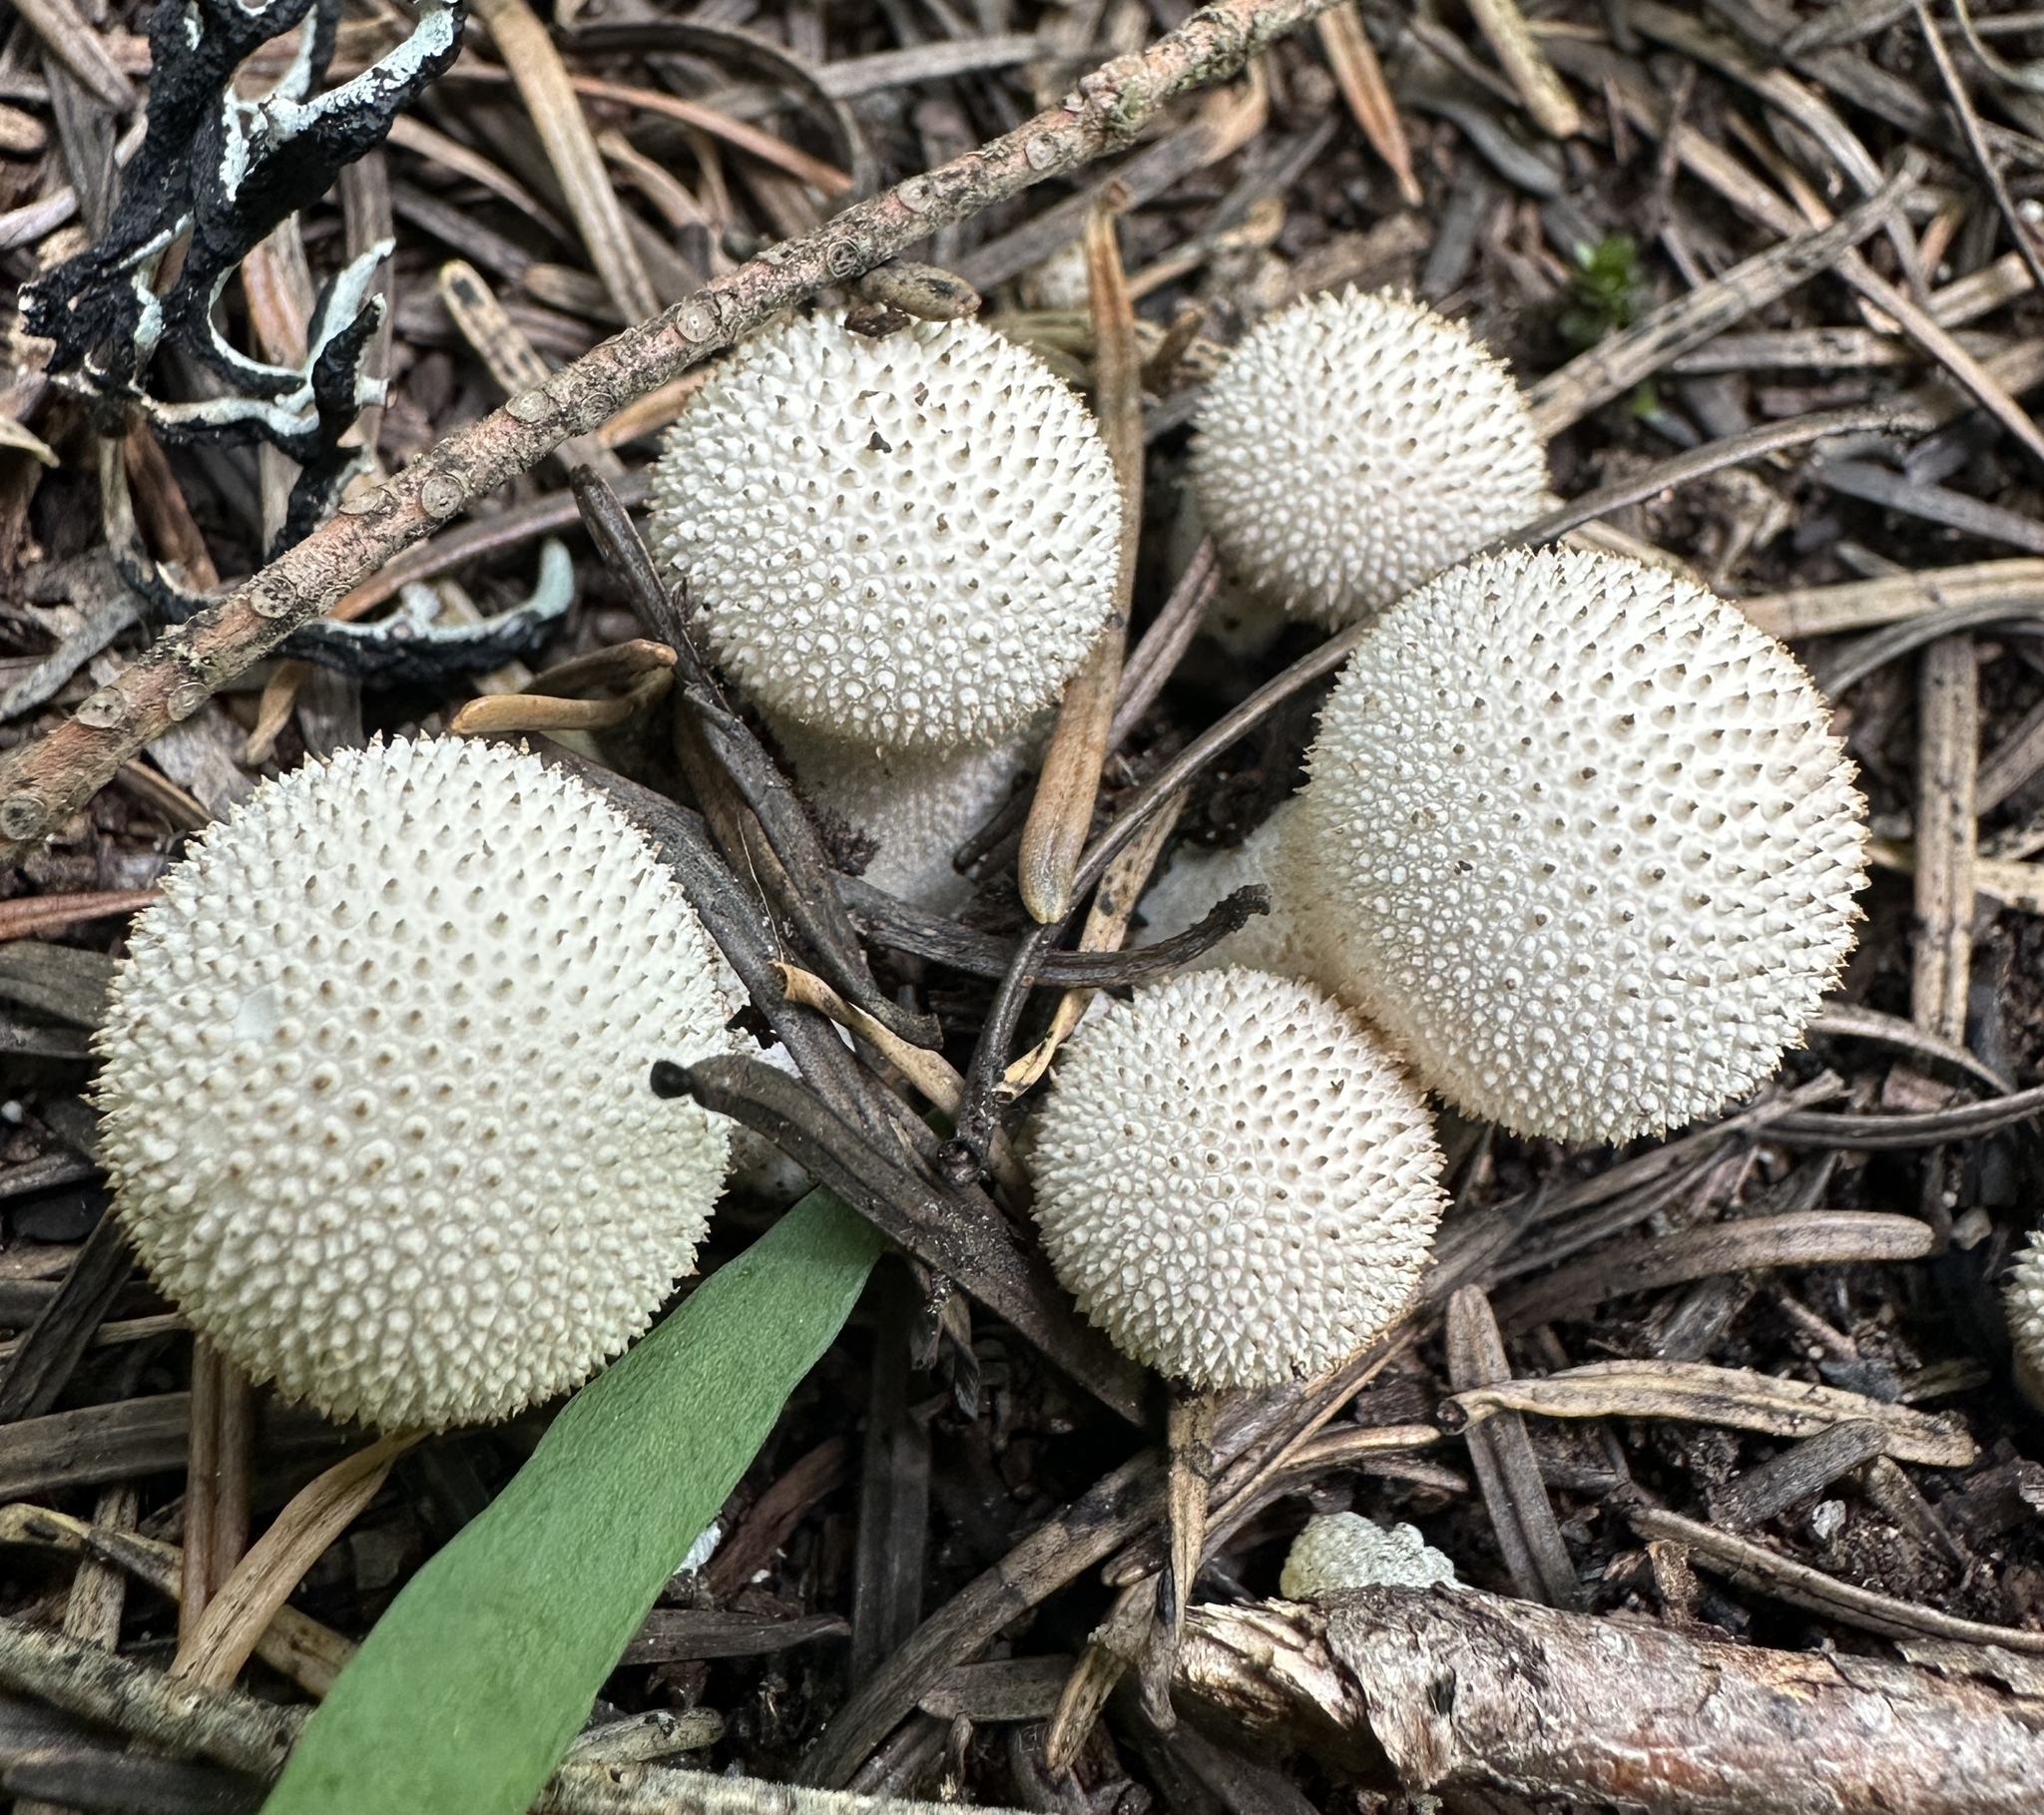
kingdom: Fungi
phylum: Basidiomycota
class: Agaricomycetes
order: Agaricales
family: Lycoperdaceae
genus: Lycoperdon
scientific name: Lycoperdon perlatum
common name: Common puffball
